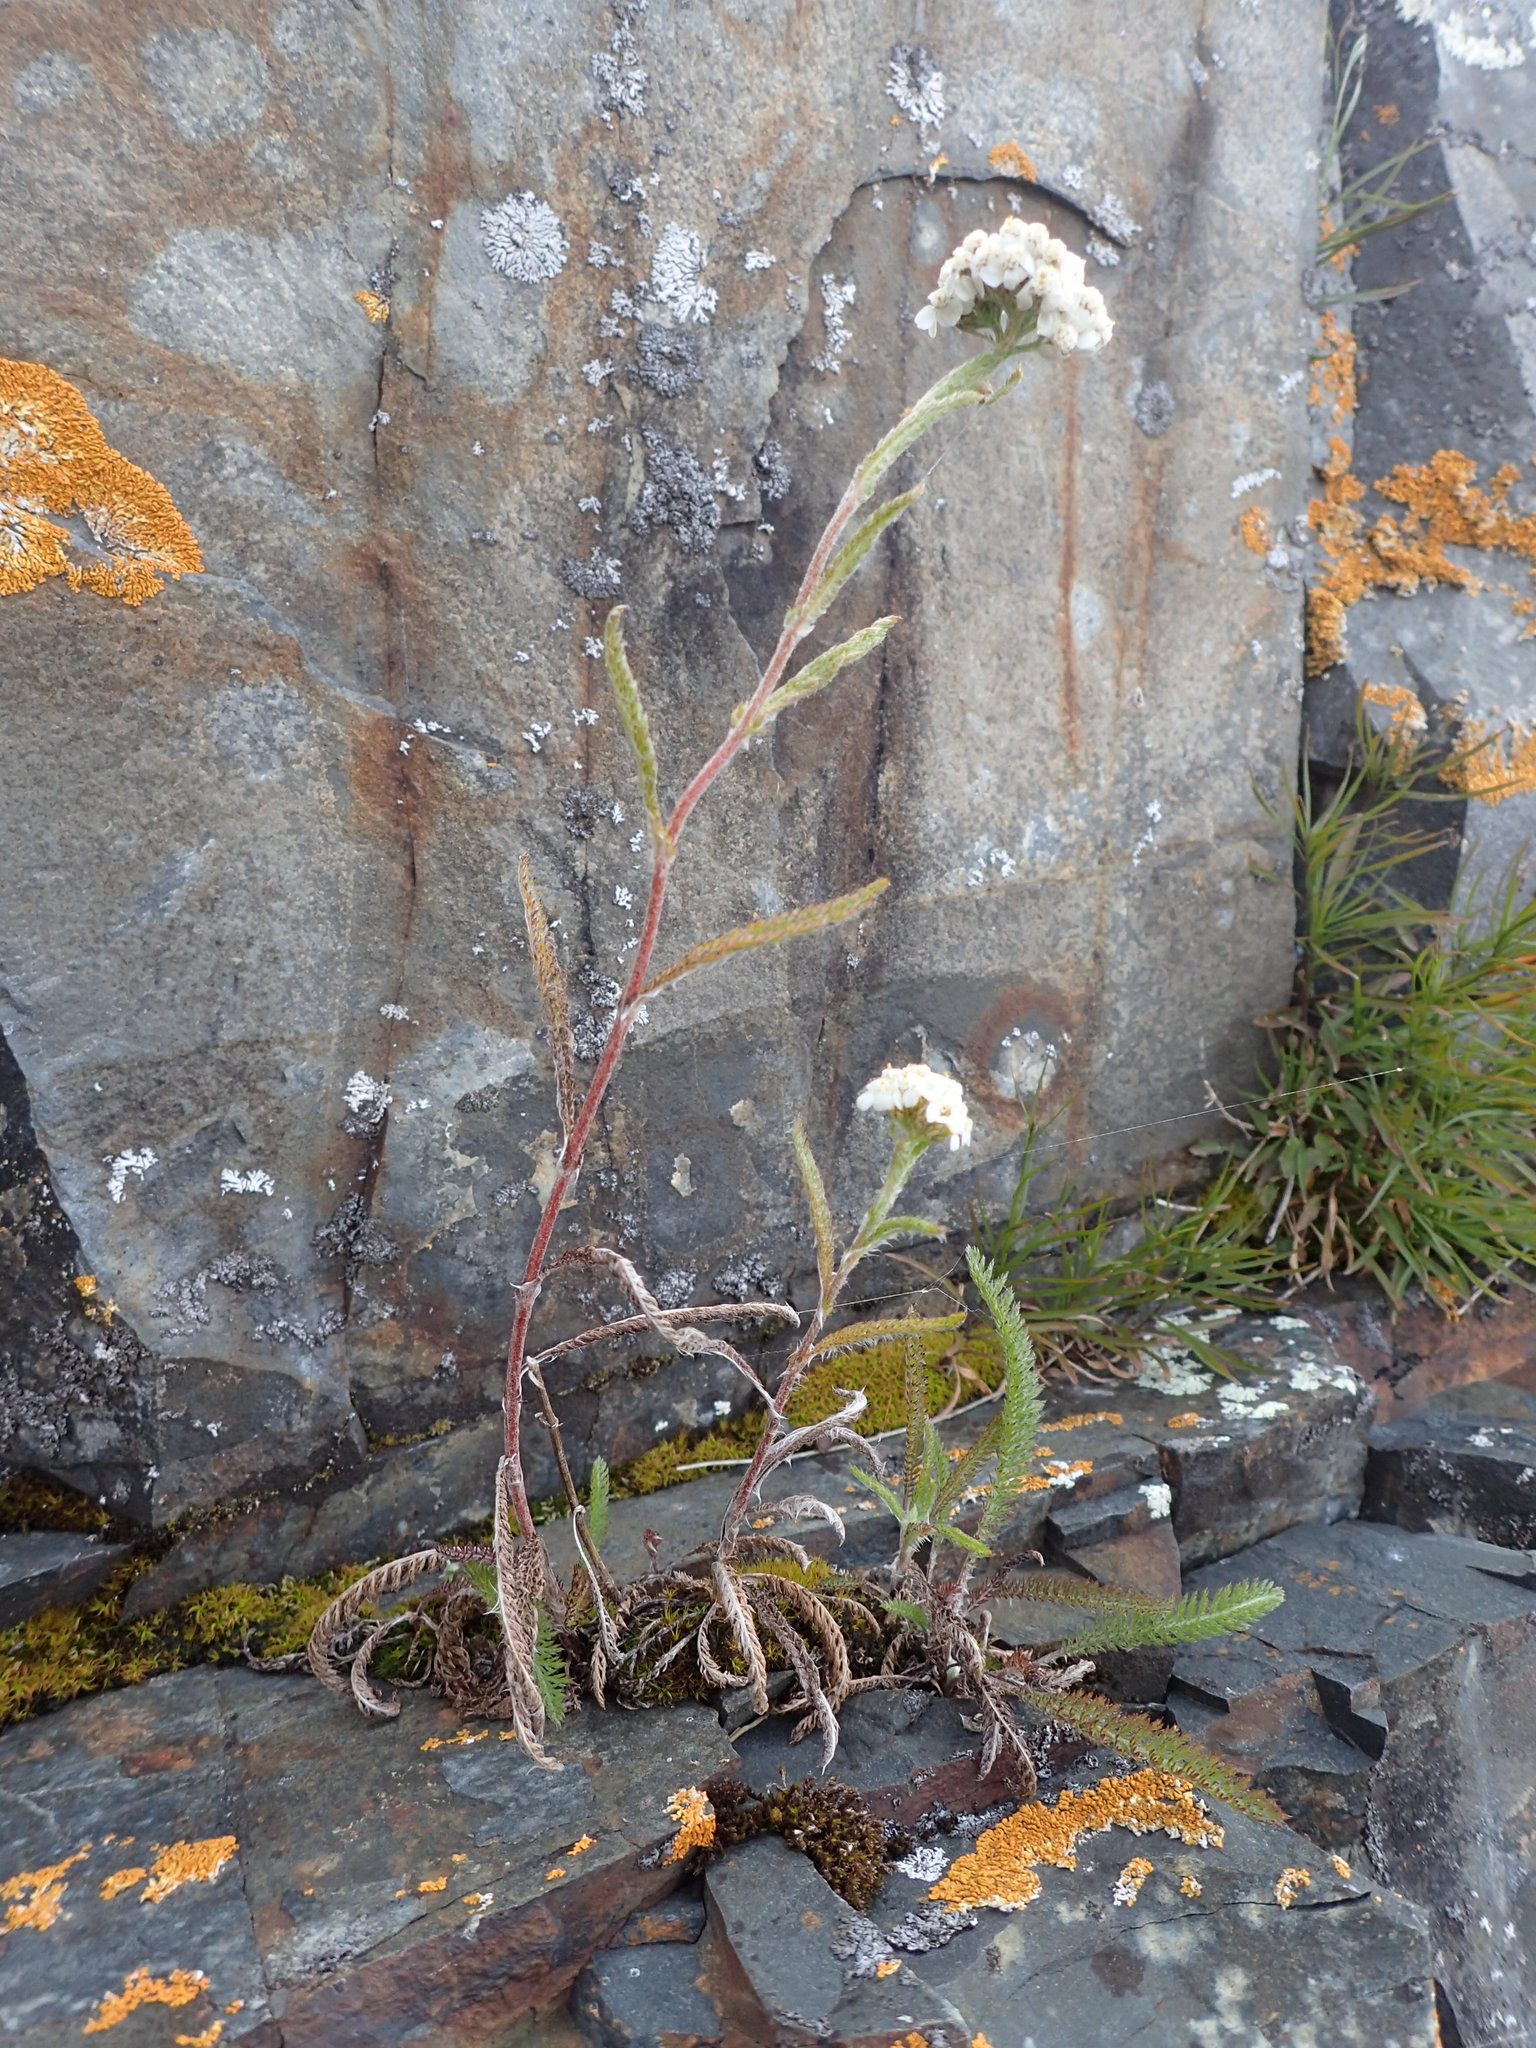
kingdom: Plantae
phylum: Tracheophyta
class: Magnoliopsida
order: Asterales
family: Asteraceae
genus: Achillea
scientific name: Achillea millefolium
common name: Yarrow
